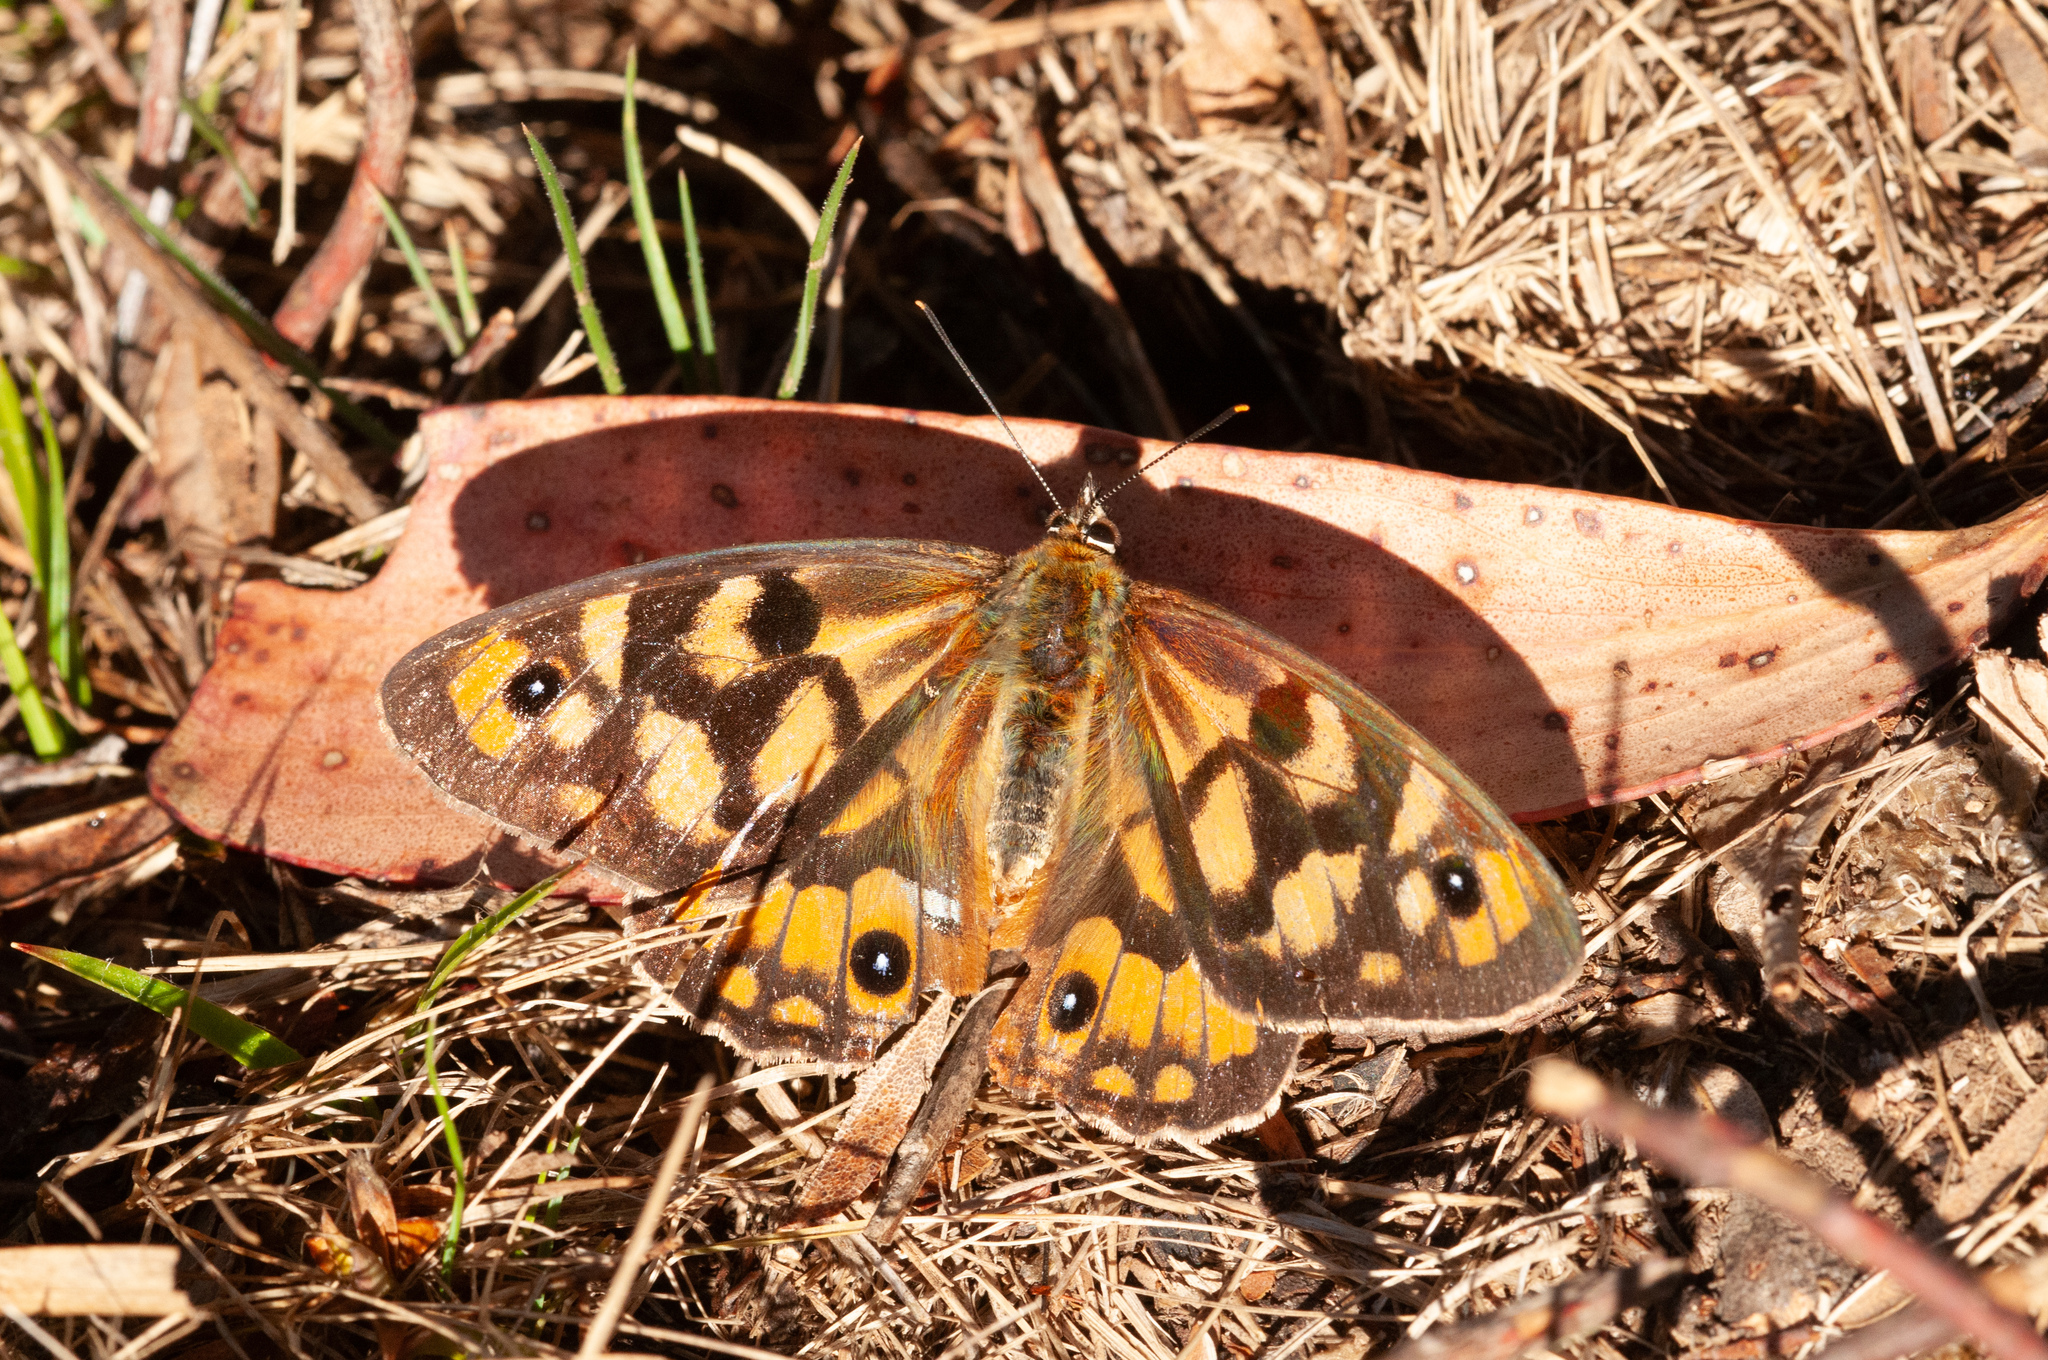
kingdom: Animalia
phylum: Arthropoda
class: Insecta
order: Lepidoptera
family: Nymphalidae
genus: Heteronympha
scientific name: Heteronympha penelope
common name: Shouldered brown
